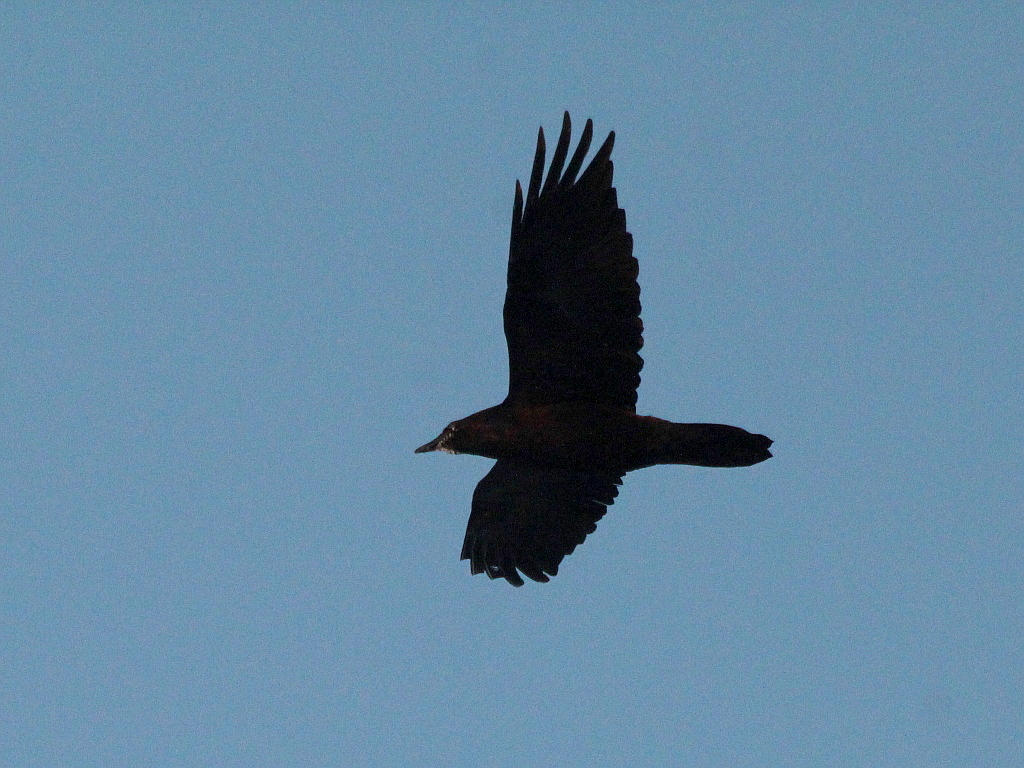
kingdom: Animalia
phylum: Chordata
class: Aves
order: Passeriformes
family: Corvidae
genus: Corvus
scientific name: Corvus corax
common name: Common raven
